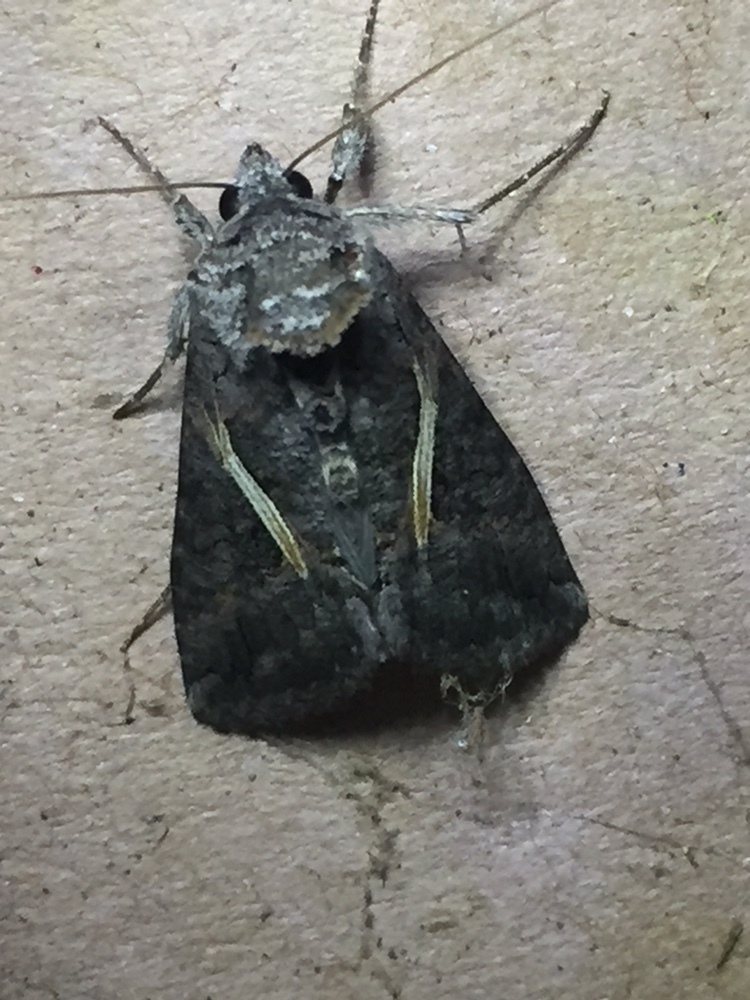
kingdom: Animalia
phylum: Arthropoda
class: Insecta
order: Lepidoptera
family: Noctuidae
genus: Ctenoplusia
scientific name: Ctenoplusia albostriata
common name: Moth
